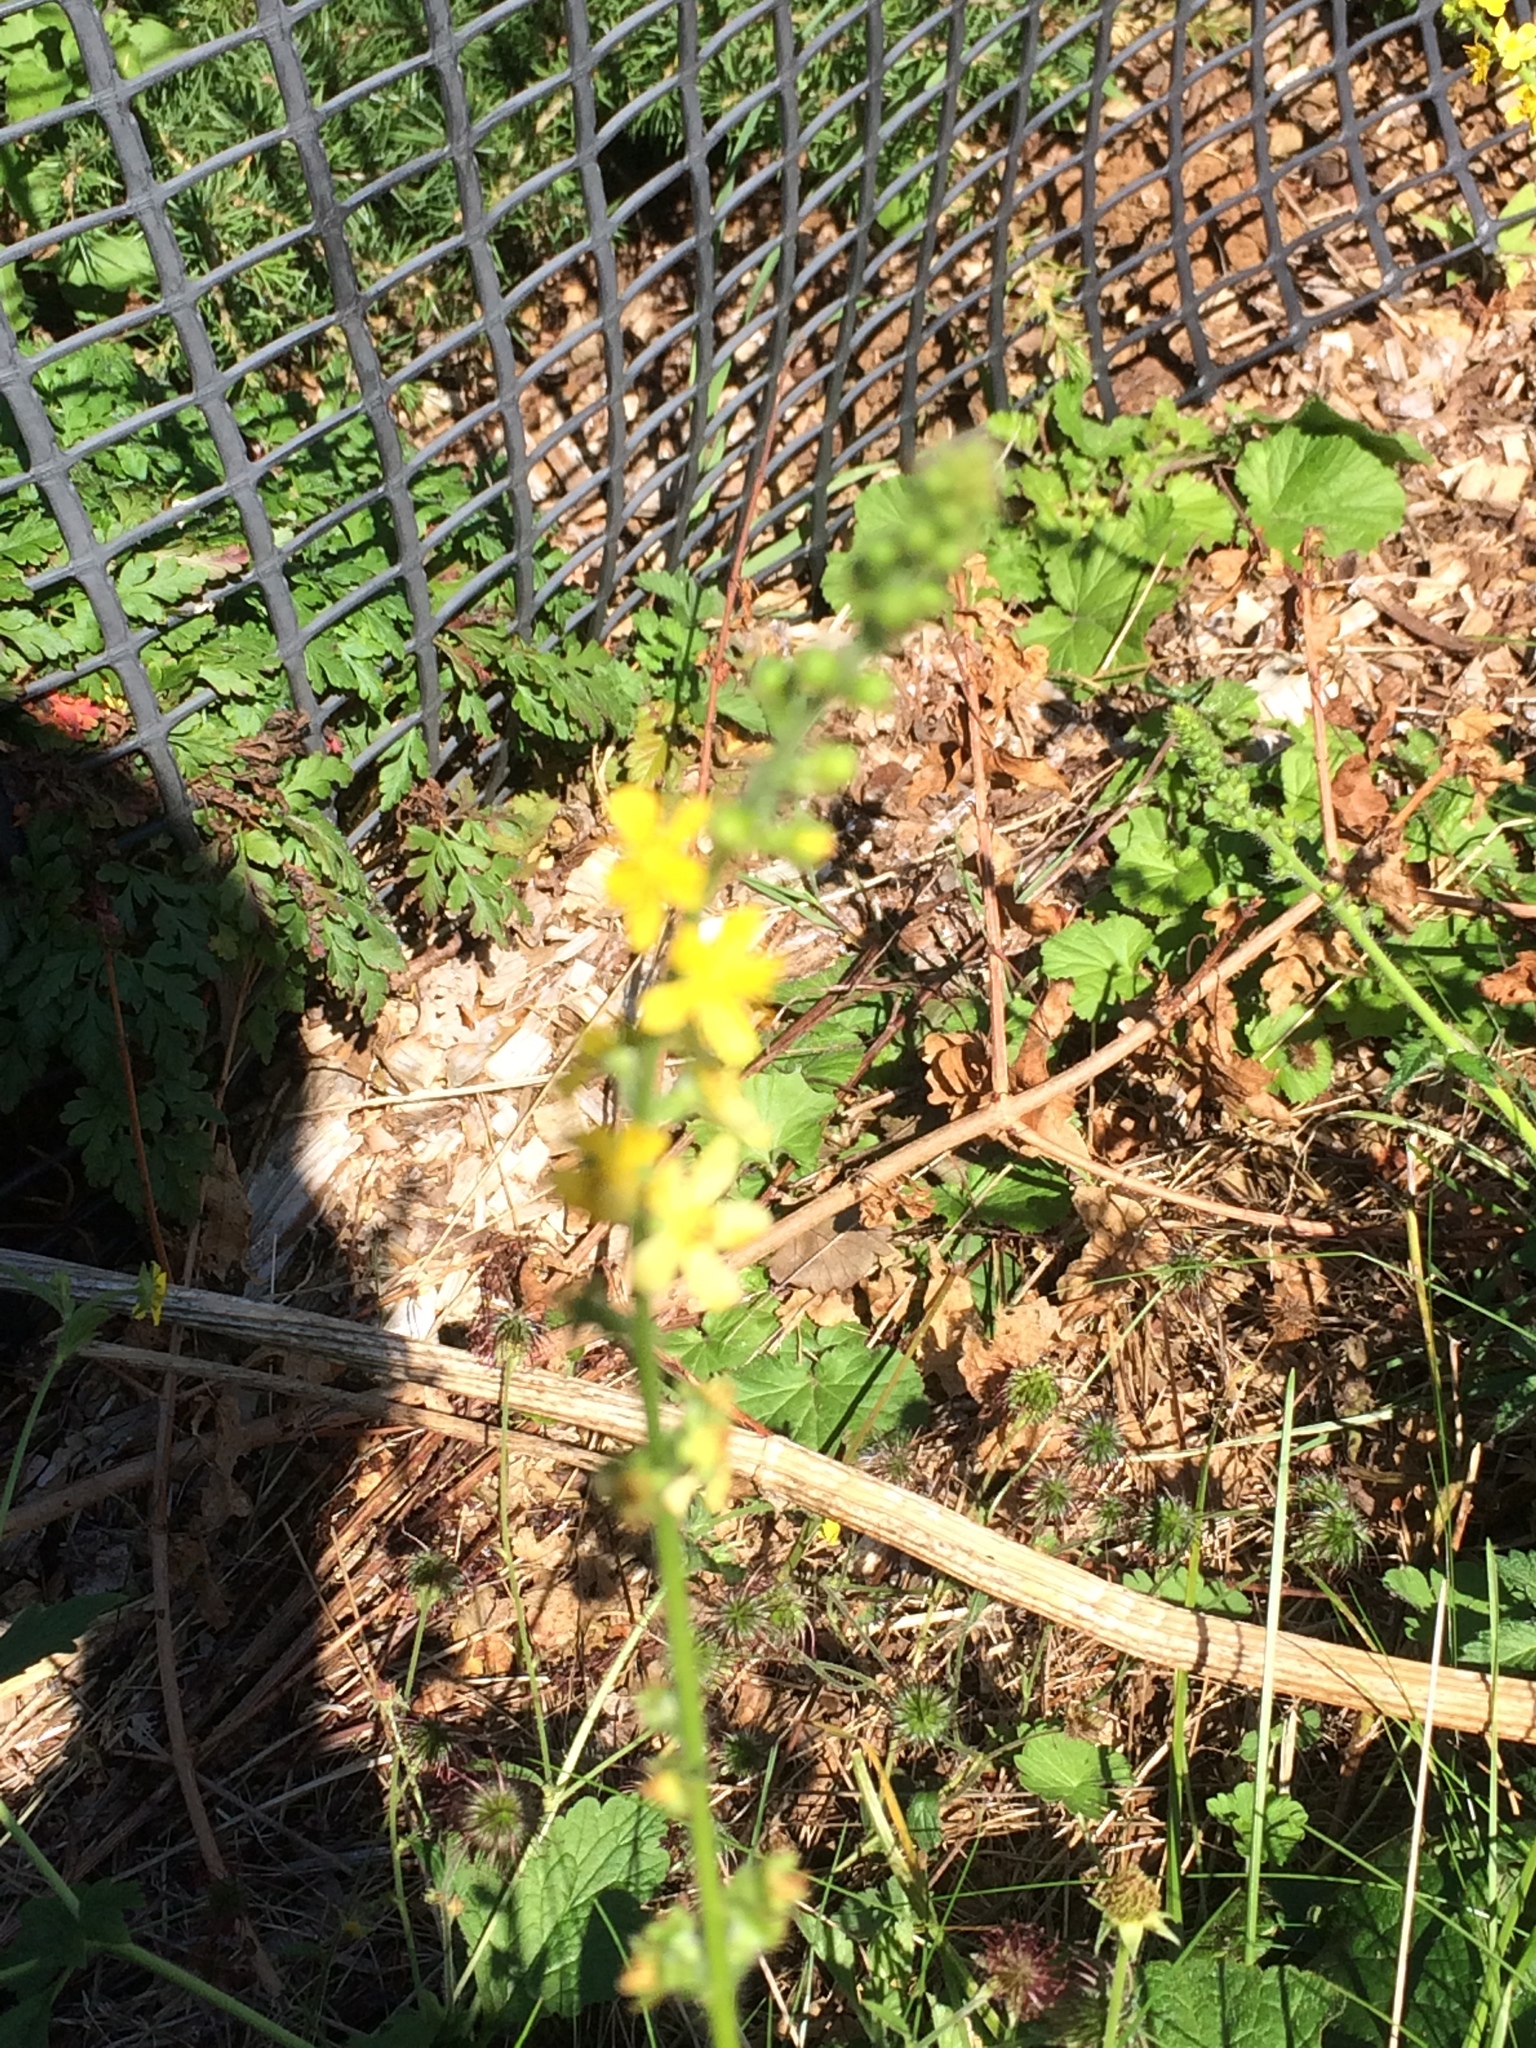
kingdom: Plantae
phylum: Tracheophyta
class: Magnoliopsida
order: Rosales
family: Rosaceae
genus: Agrimonia
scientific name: Agrimonia eupatoria
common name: Agrimony
